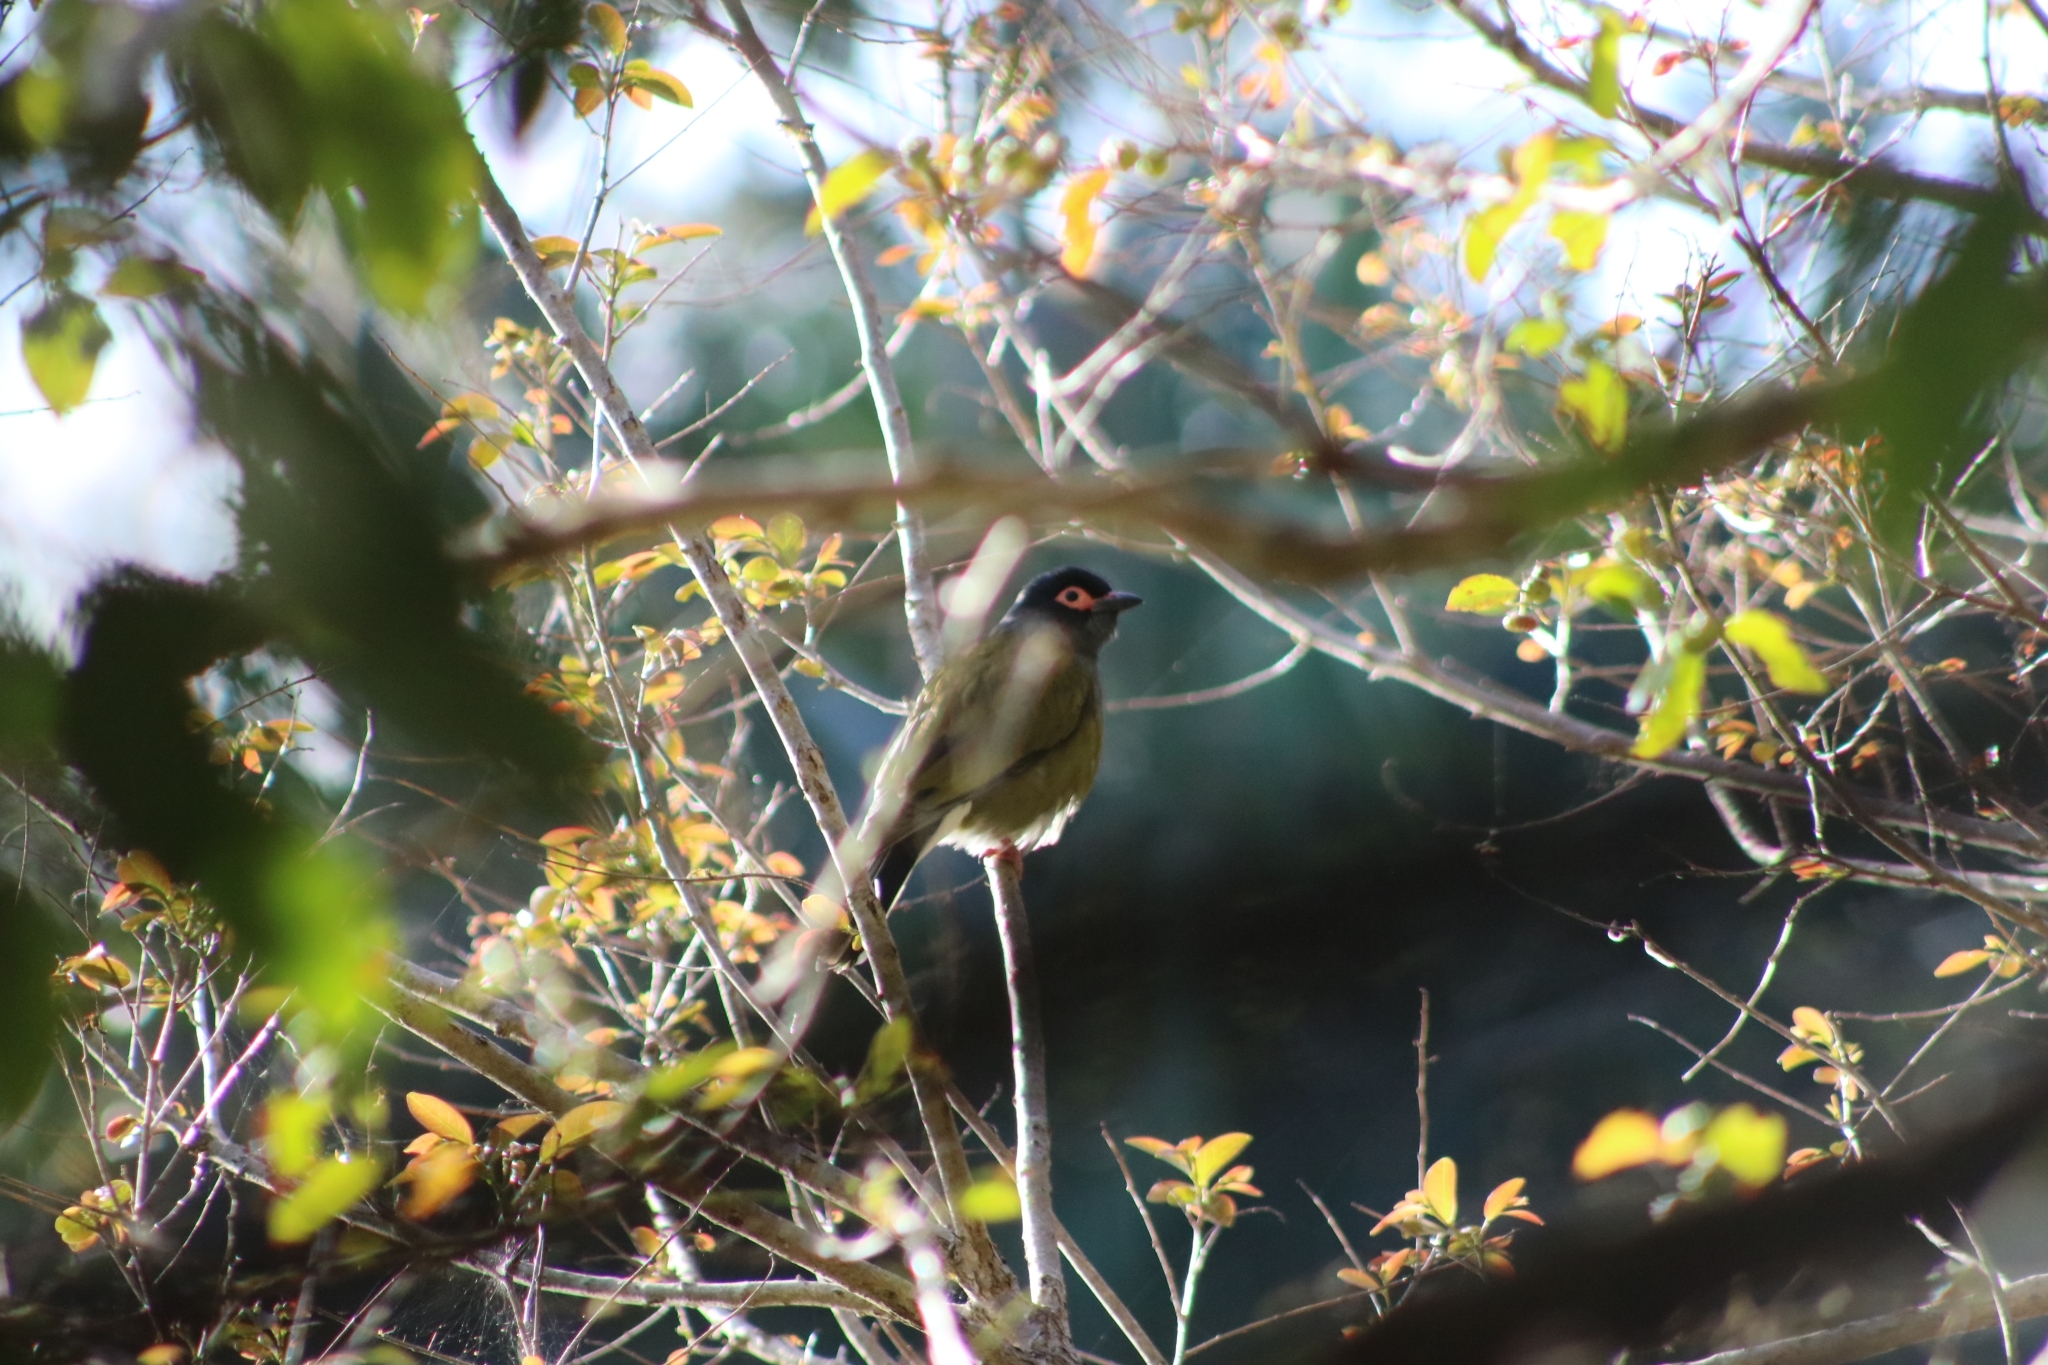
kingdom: Animalia
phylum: Chordata
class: Aves
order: Passeriformes
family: Oriolidae
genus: Sphecotheres
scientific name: Sphecotheres vieilloti
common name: Australasian figbird
